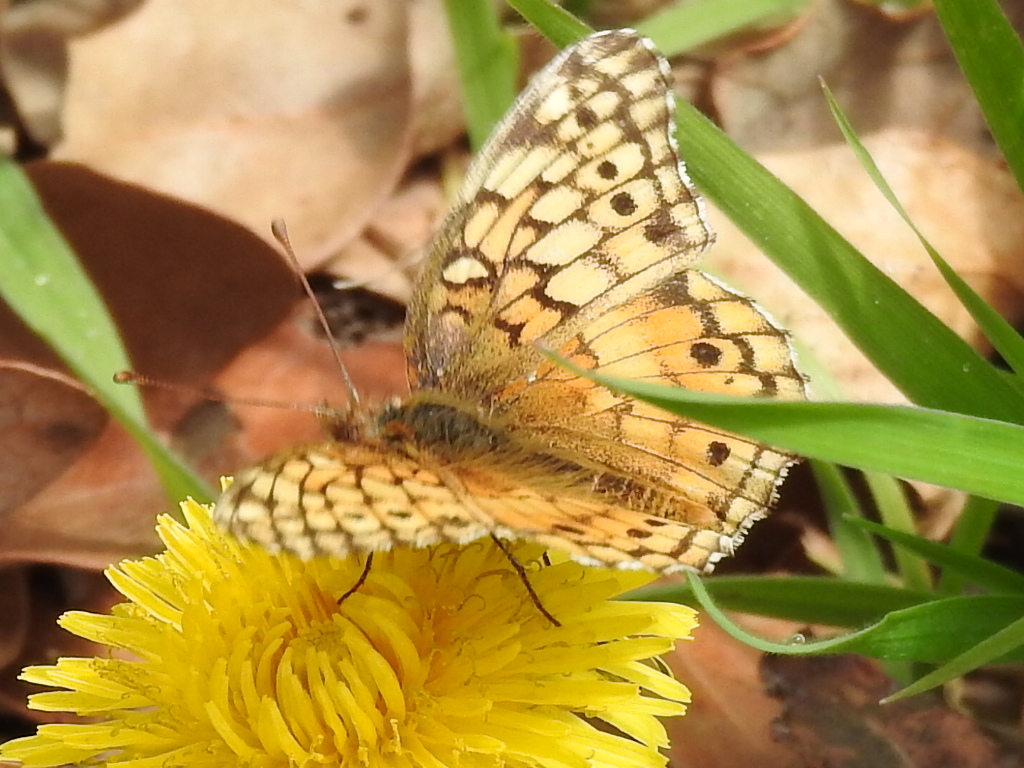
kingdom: Animalia
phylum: Arthropoda
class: Insecta
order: Lepidoptera
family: Nymphalidae
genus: Euptoieta
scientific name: Euptoieta claudia
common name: Variegated fritillary
